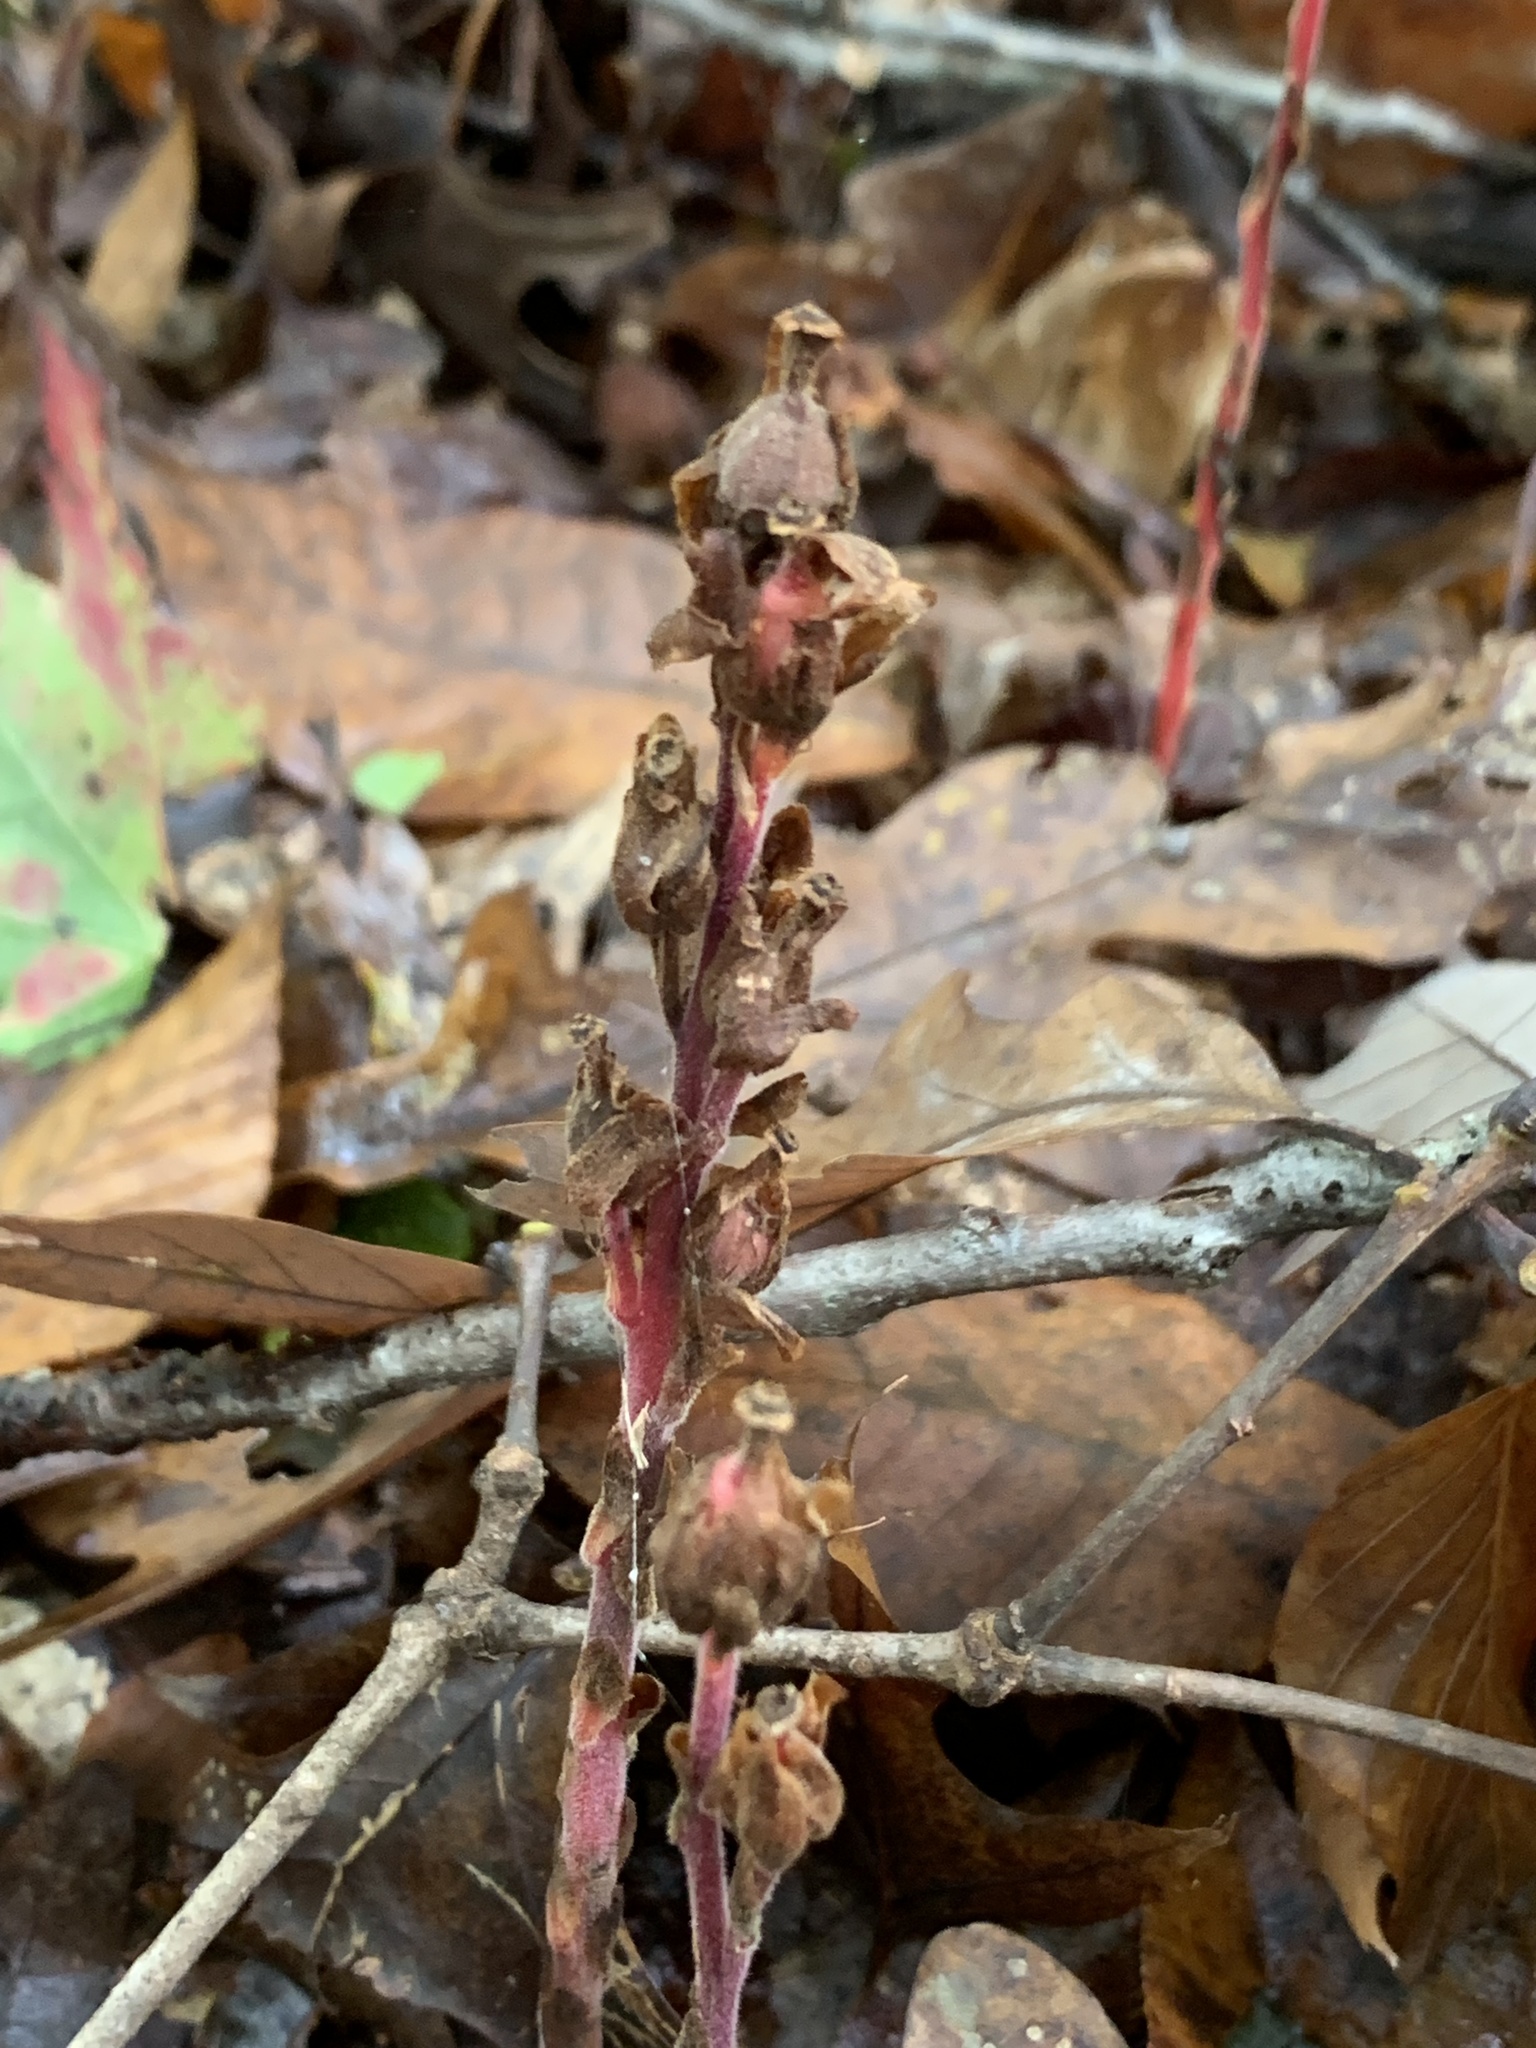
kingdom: Plantae
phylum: Tracheophyta
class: Magnoliopsida
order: Ericales
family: Ericaceae
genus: Hypopitys
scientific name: Hypopitys monotropa
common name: Yellow bird's-nest
